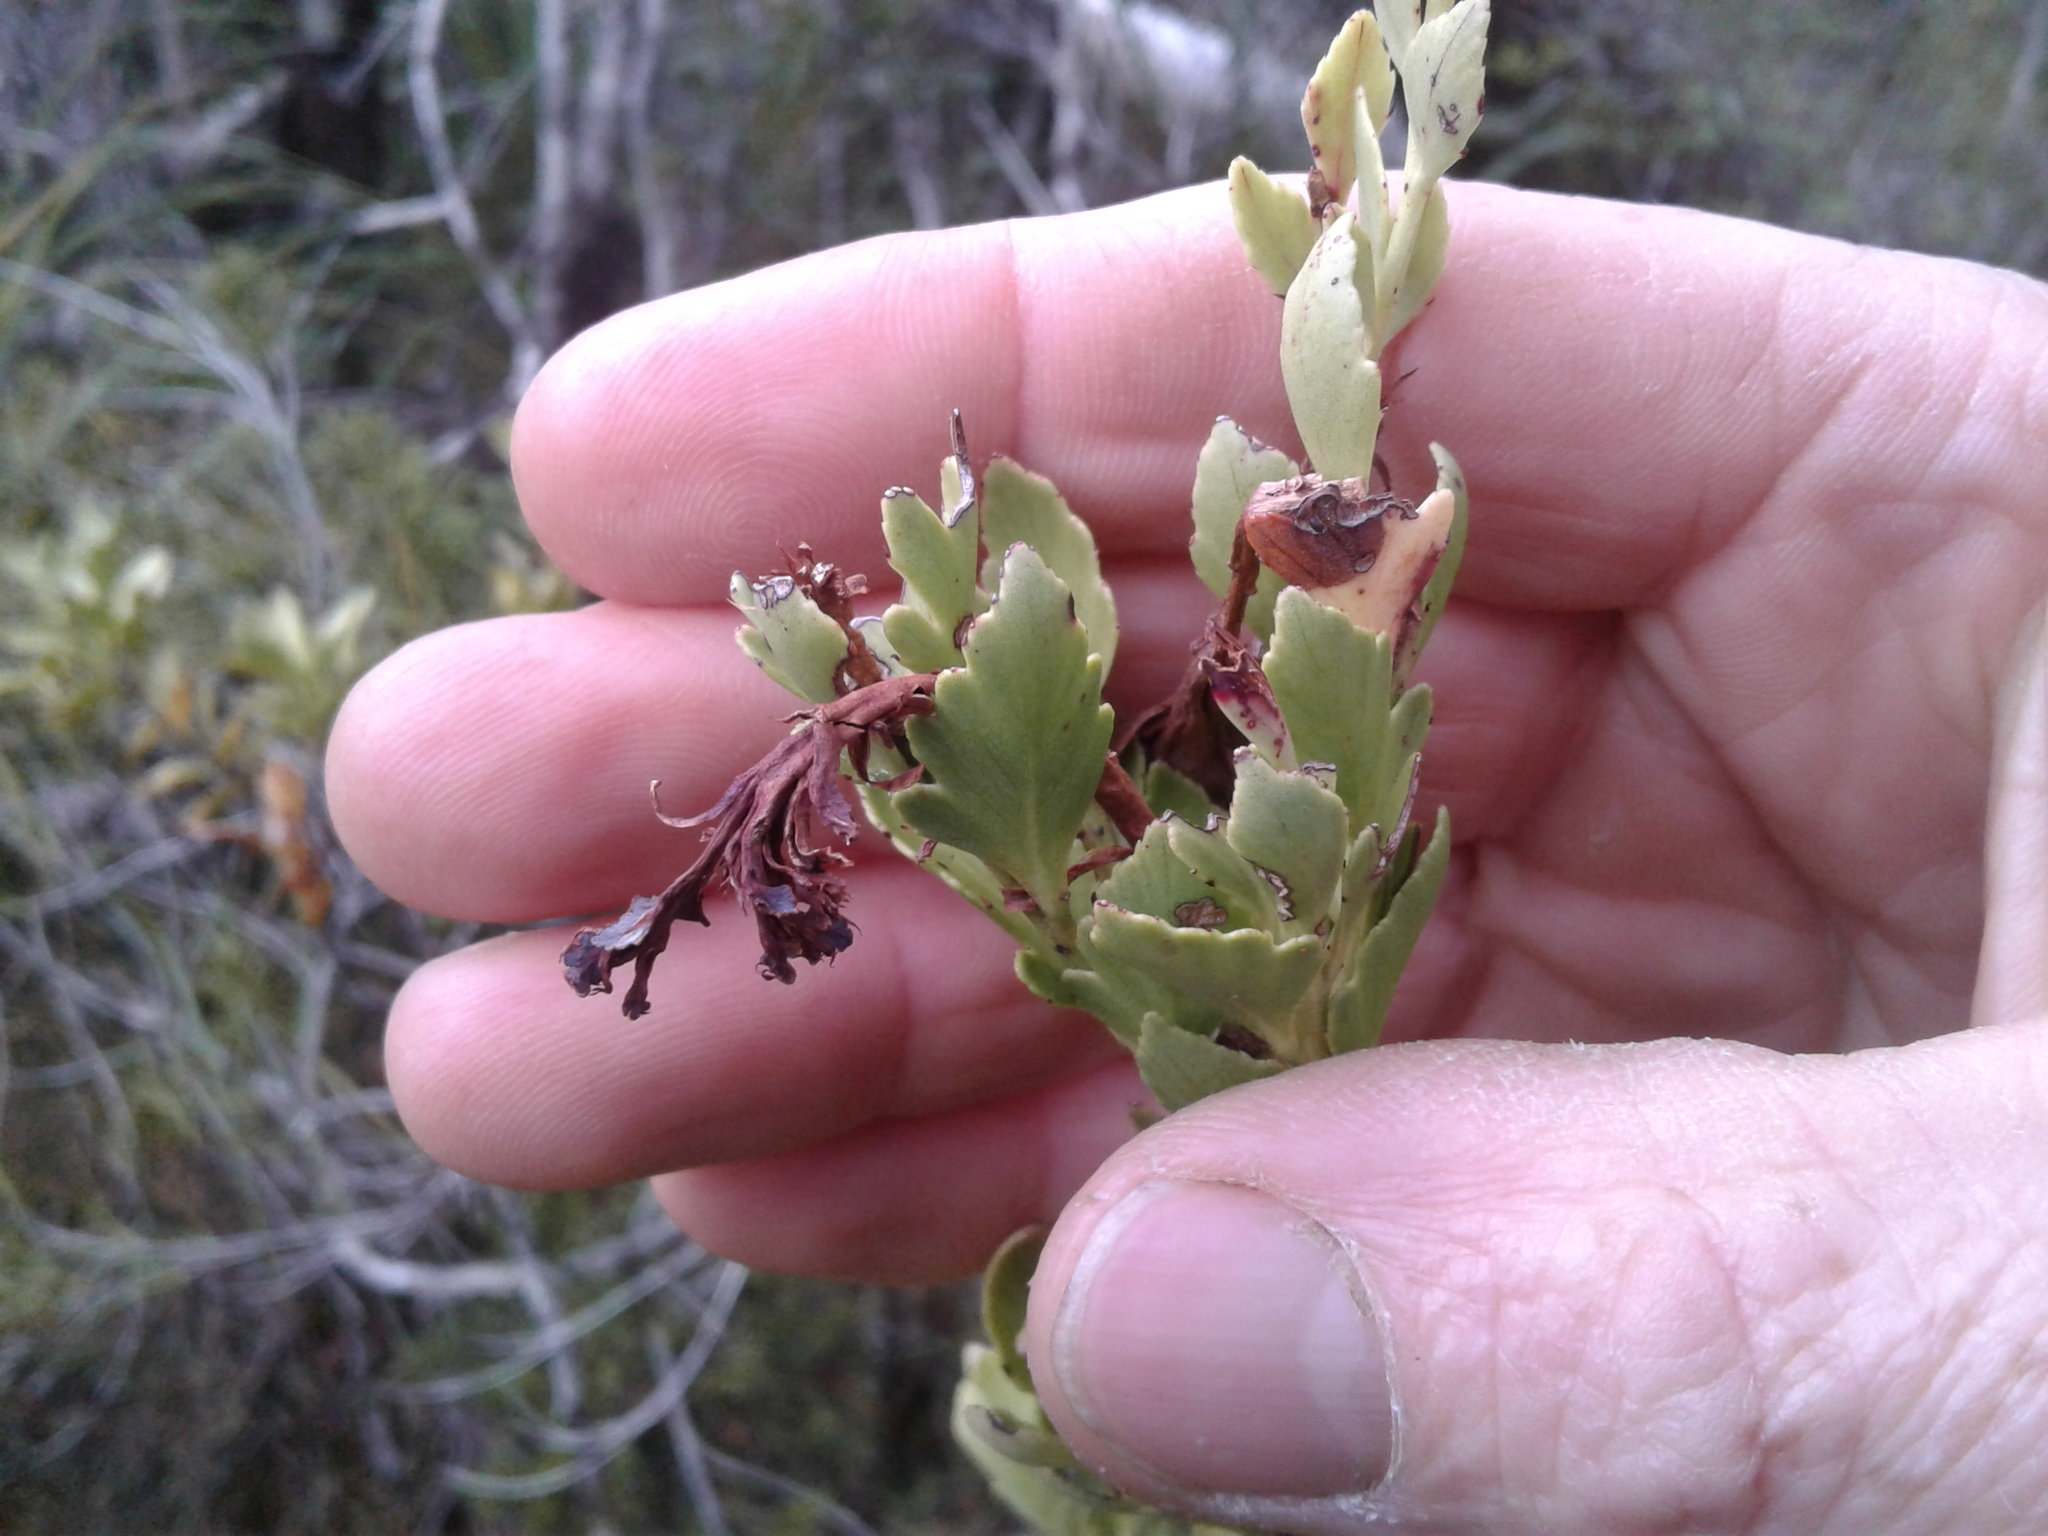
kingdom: Plantae
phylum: Tracheophyta
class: Pinopsida
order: Pinales
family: Phyllocladaceae
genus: Phyllocladus
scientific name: Phyllocladus trichomanoides
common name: Celery pine
